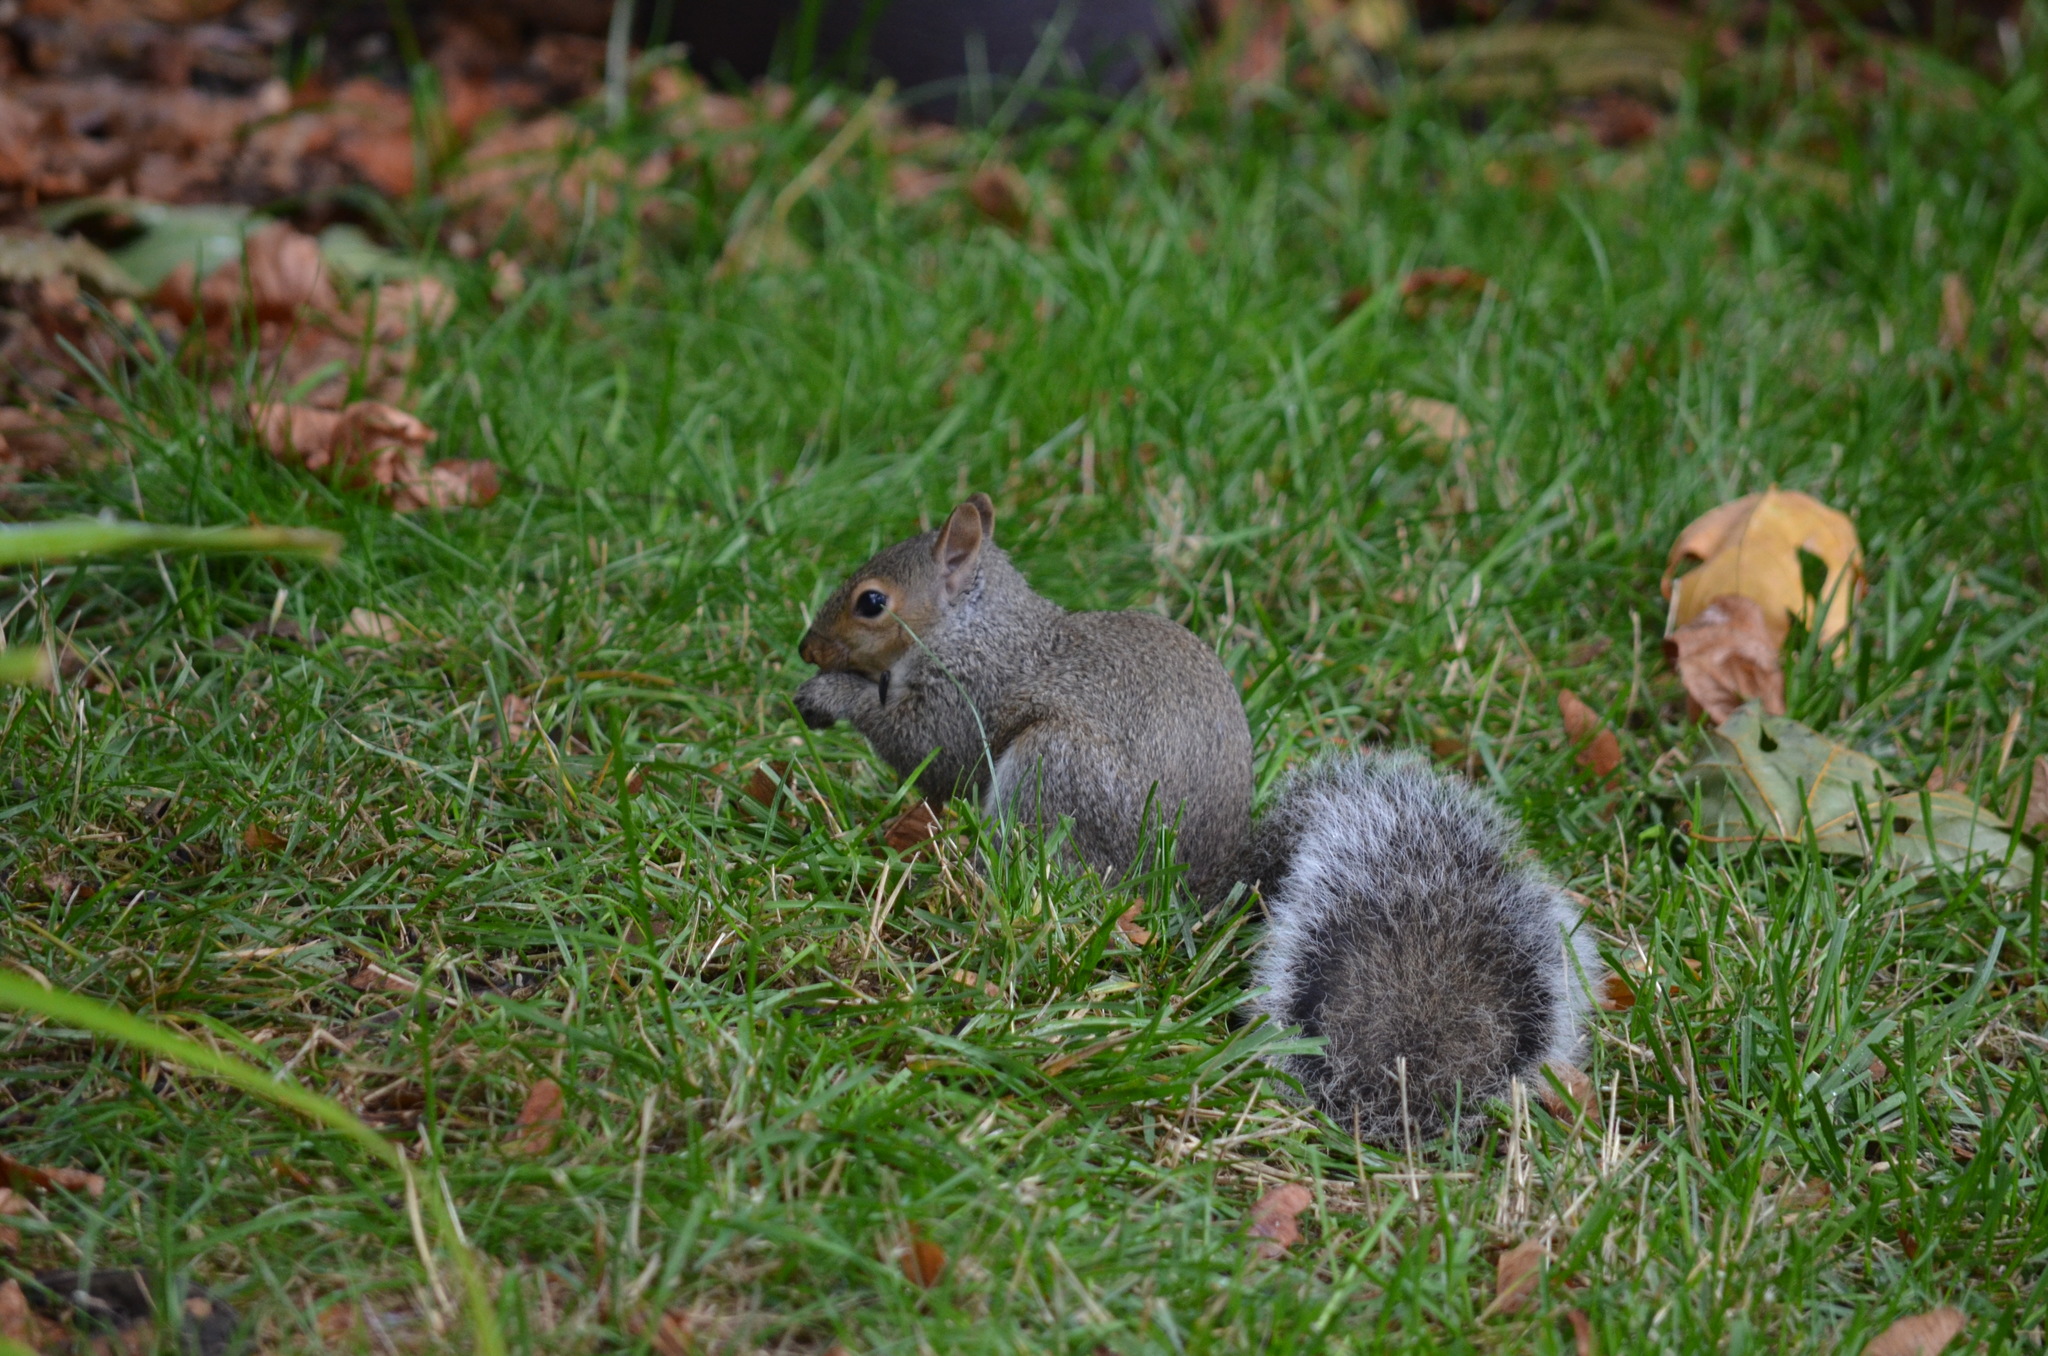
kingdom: Animalia
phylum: Chordata
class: Mammalia
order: Rodentia
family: Sciuridae
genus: Sciurus
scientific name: Sciurus carolinensis
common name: Eastern gray squirrel
